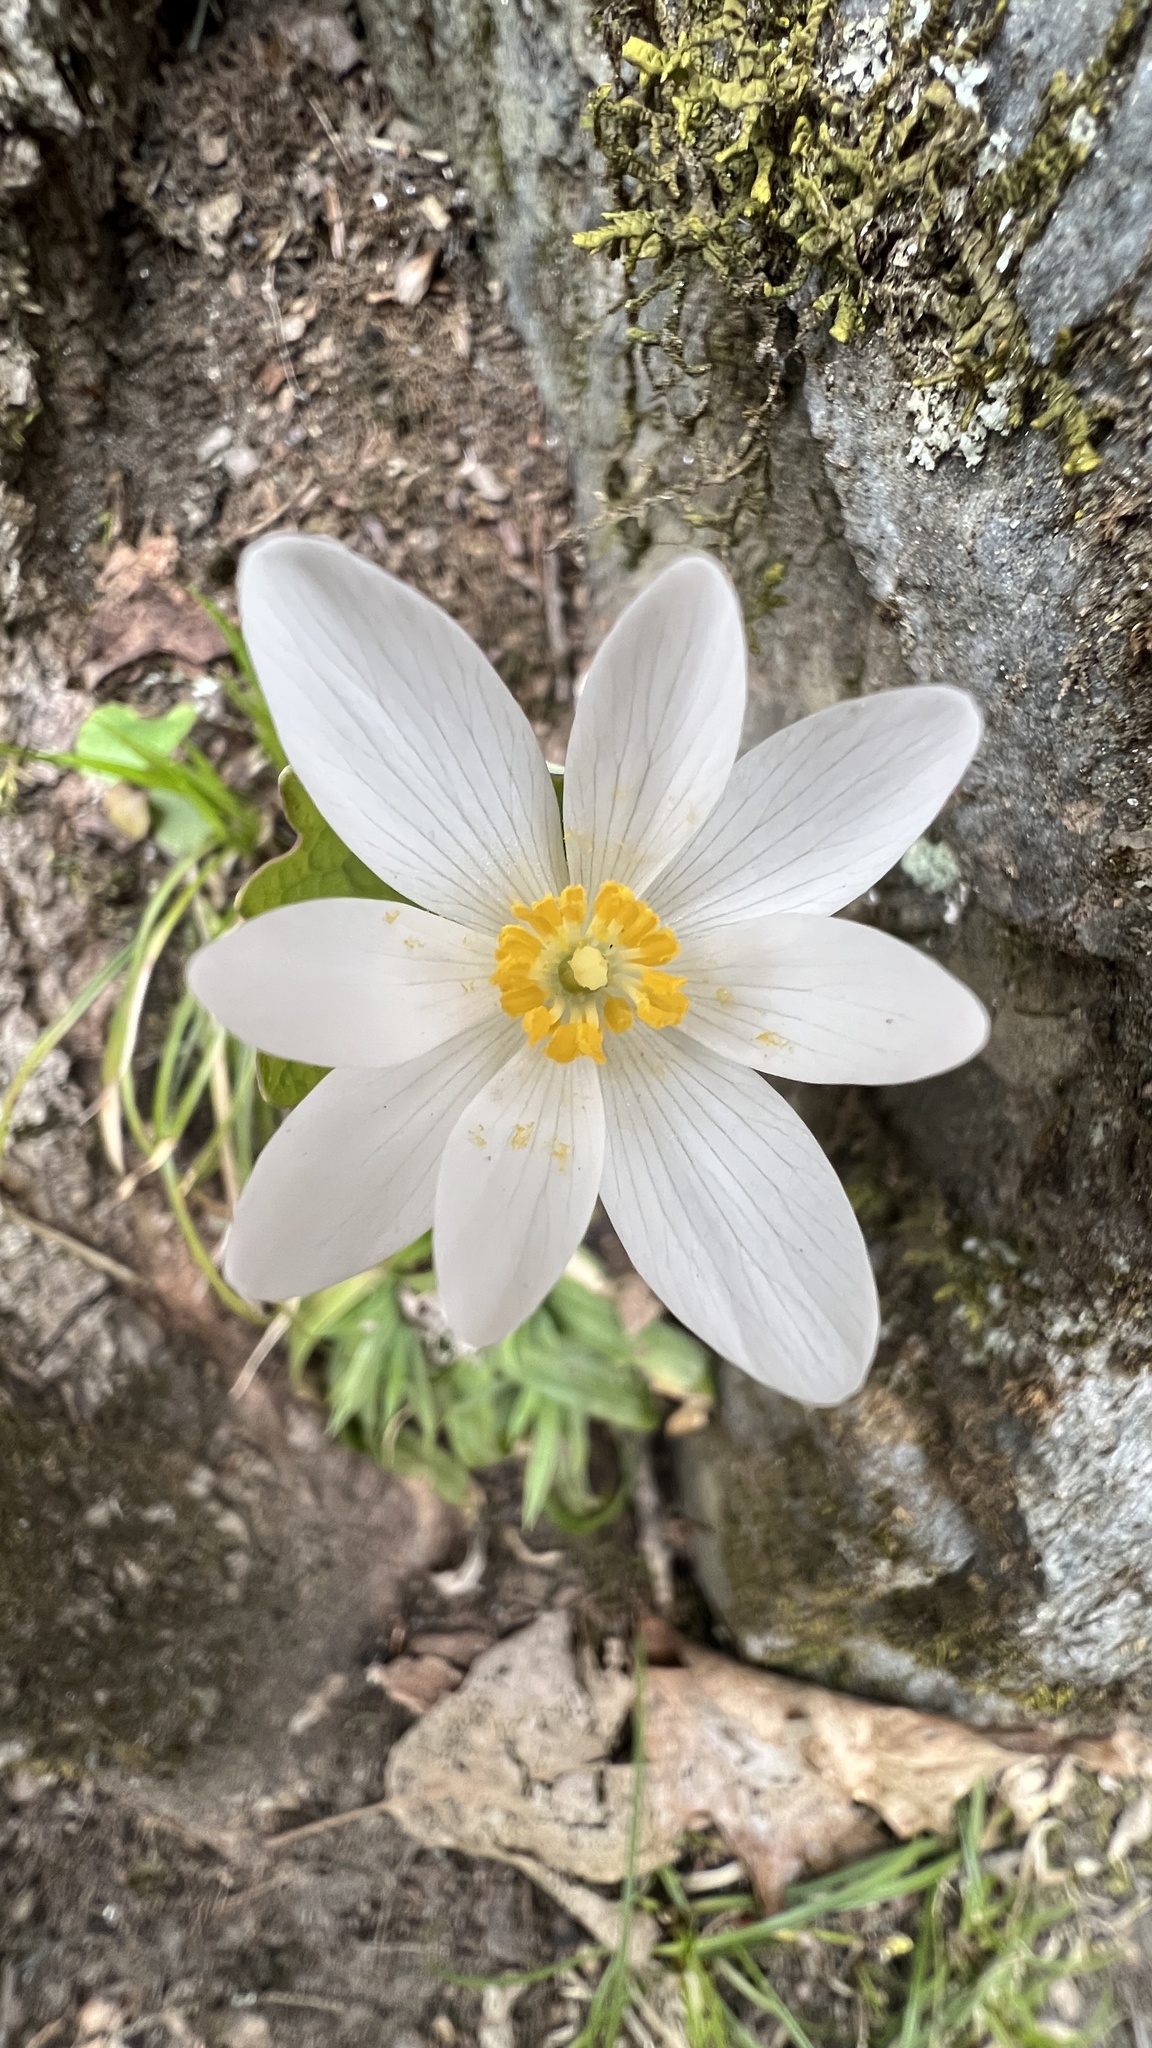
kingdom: Plantae
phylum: Tracheophyta
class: Magnoliopsida
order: Ranunculales
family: Papaveraceae
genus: Sanguinaria
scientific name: Sanguinaria canadensis
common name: Bloodroot
